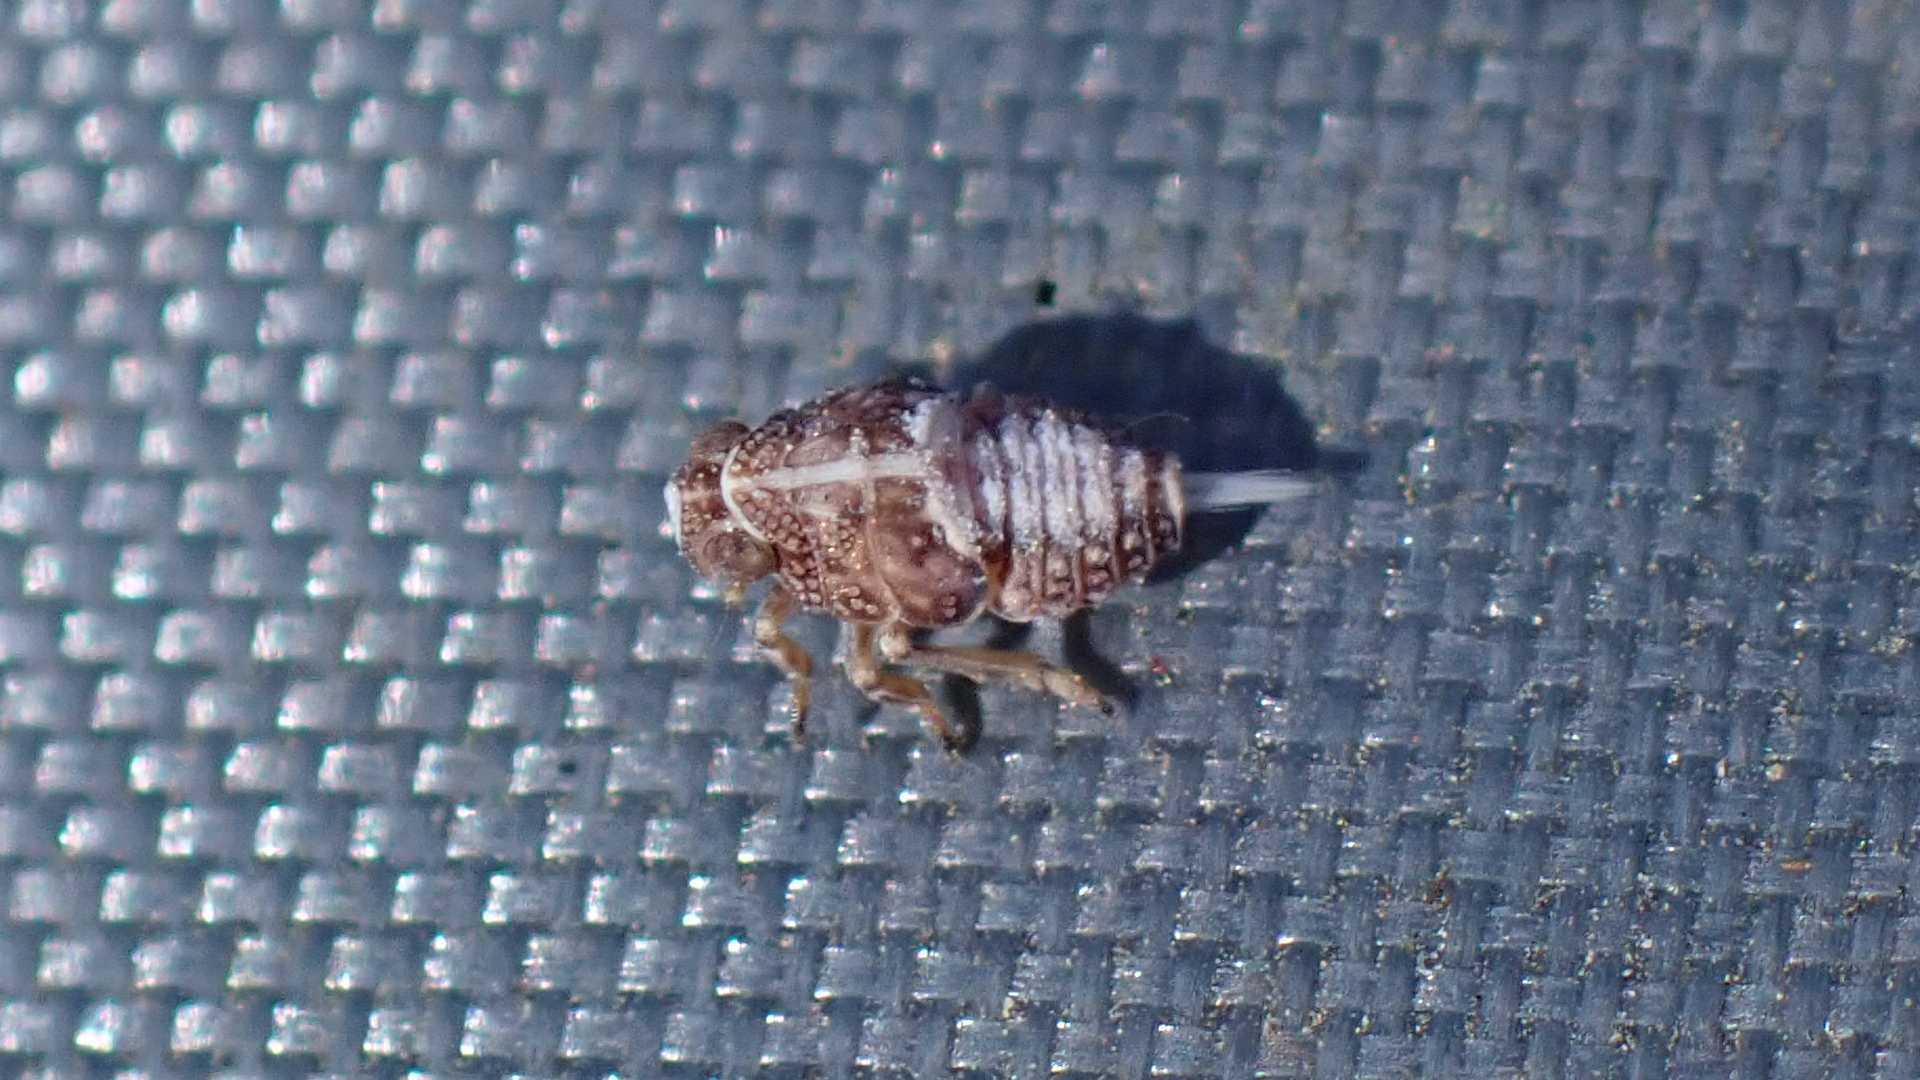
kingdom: Animalia
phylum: Arthropoda
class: Insecta
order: Hemiptera
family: Issidae
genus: Issus
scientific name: Issus
